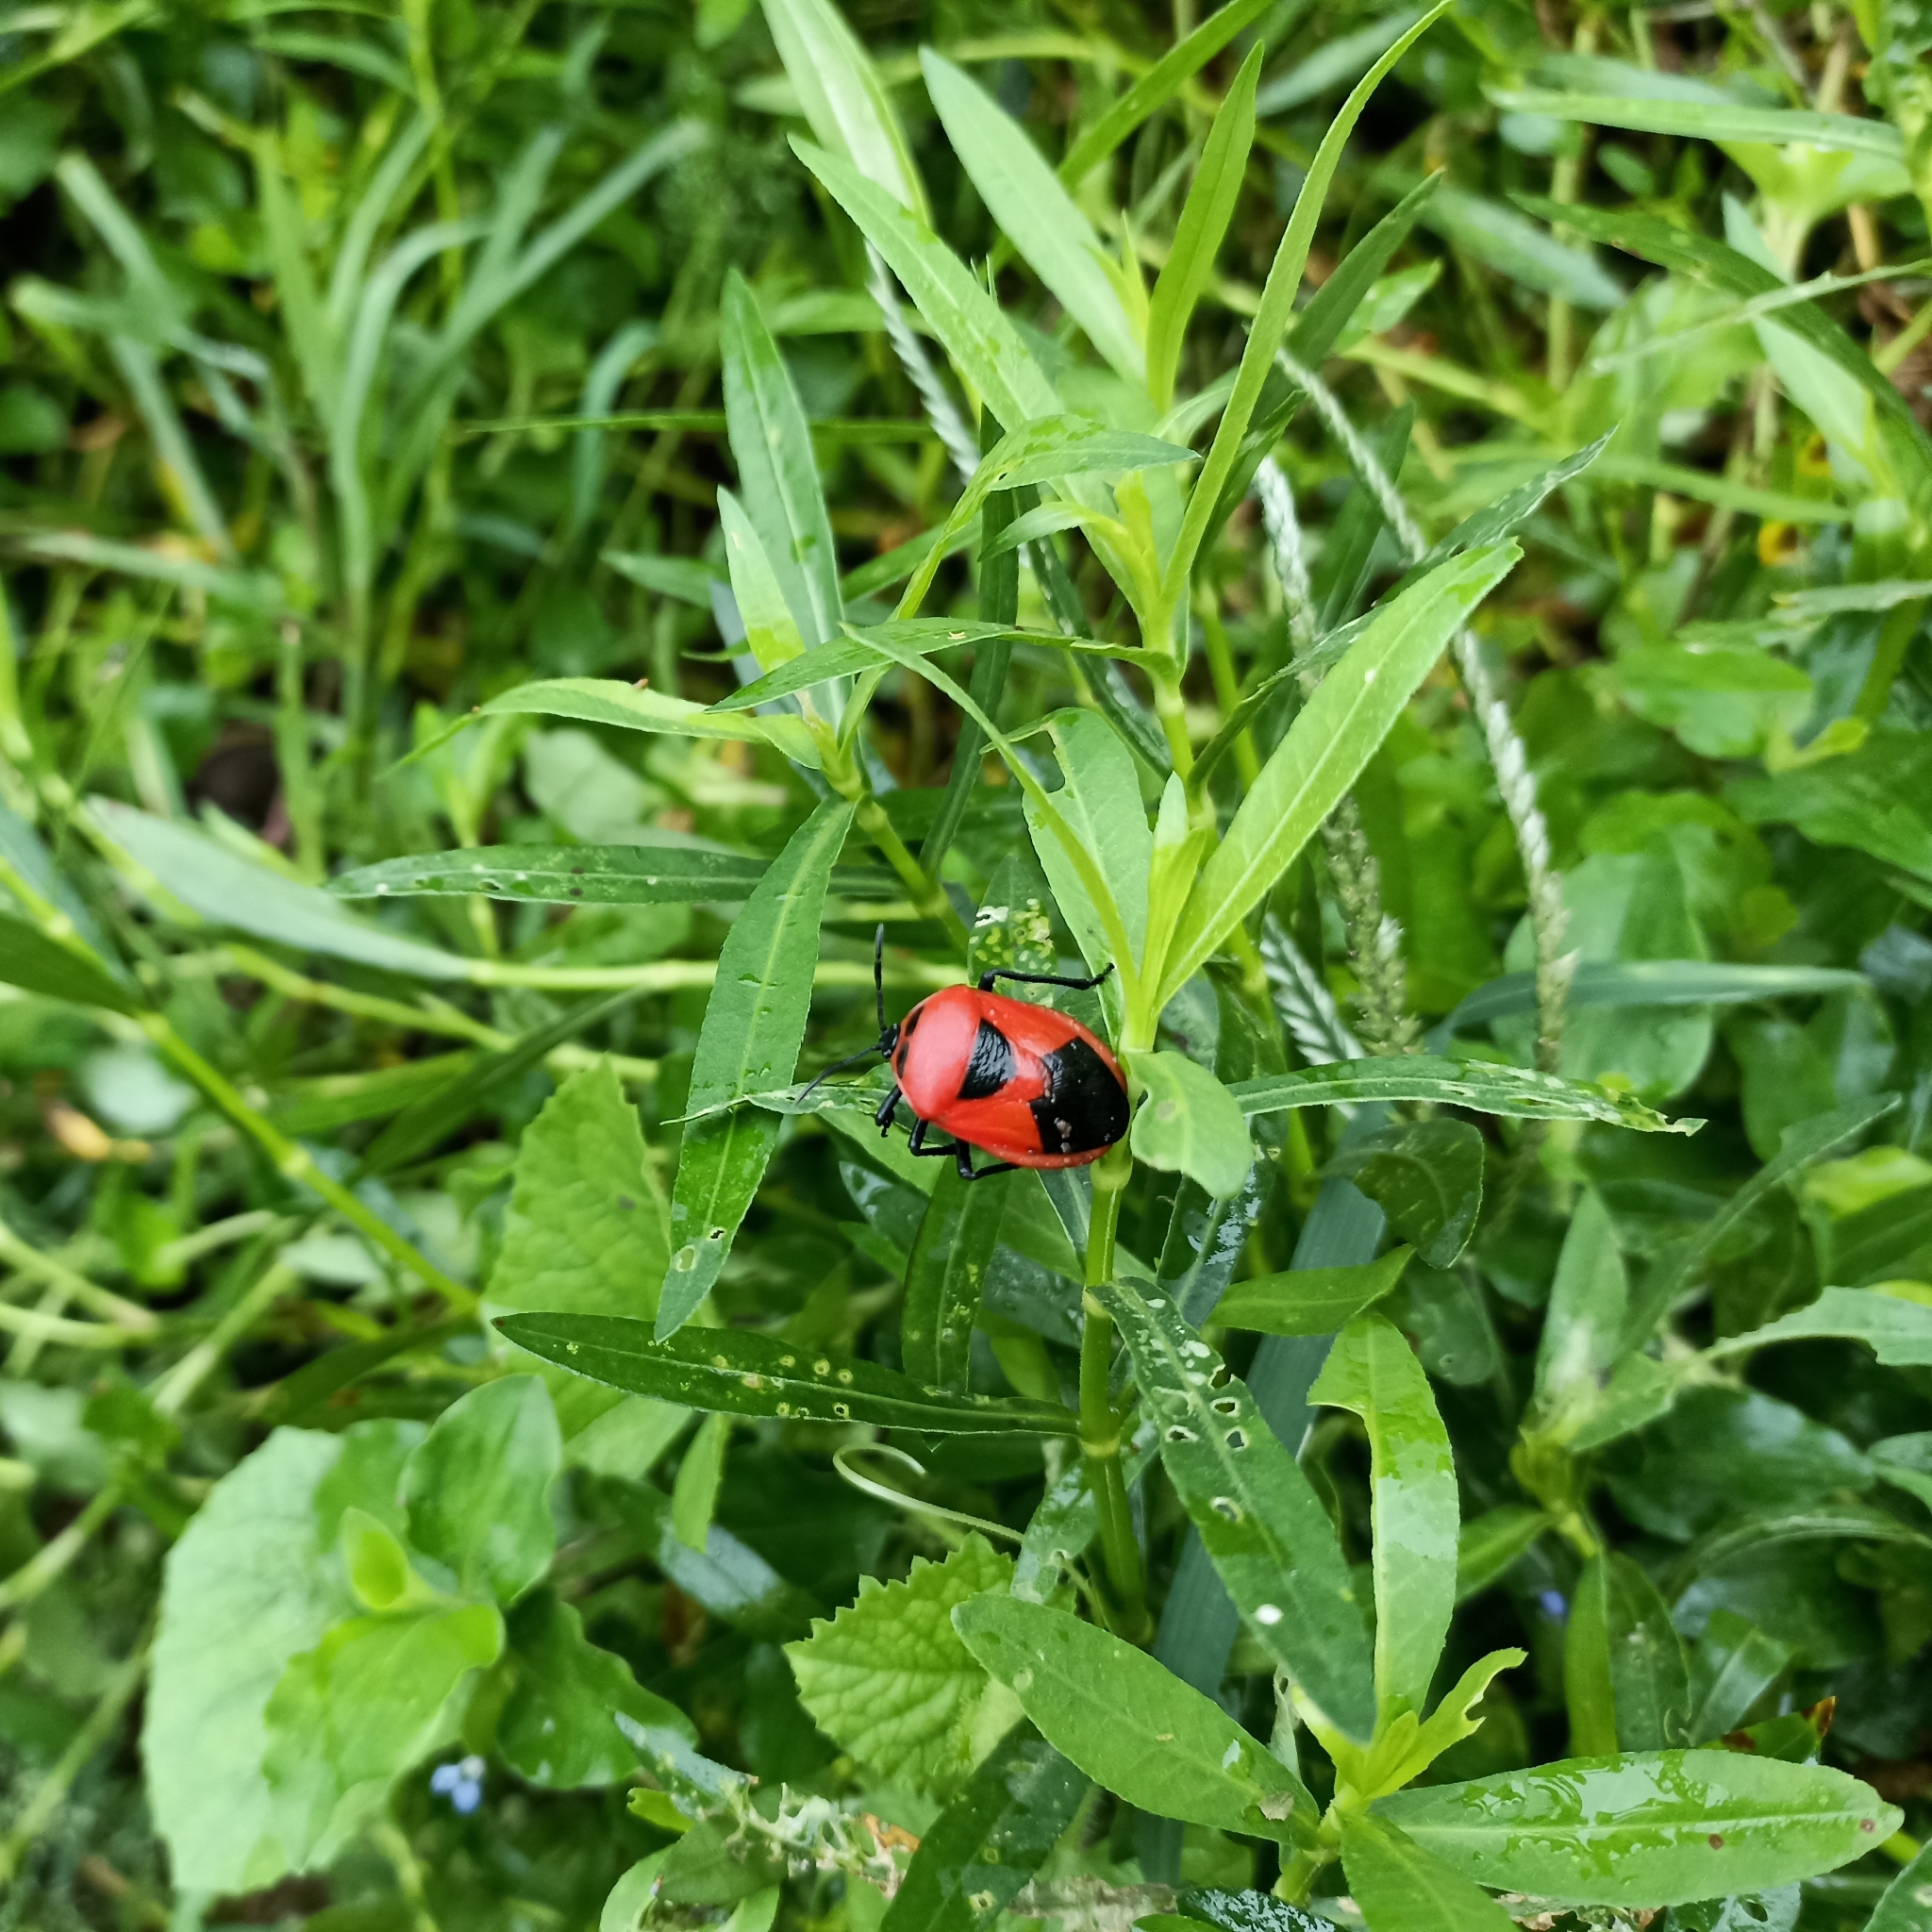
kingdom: Animalia
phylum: Arthropoda
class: Insecta
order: Hemiptera
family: Dinidoridae
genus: Coridius
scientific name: Coridius ianus
